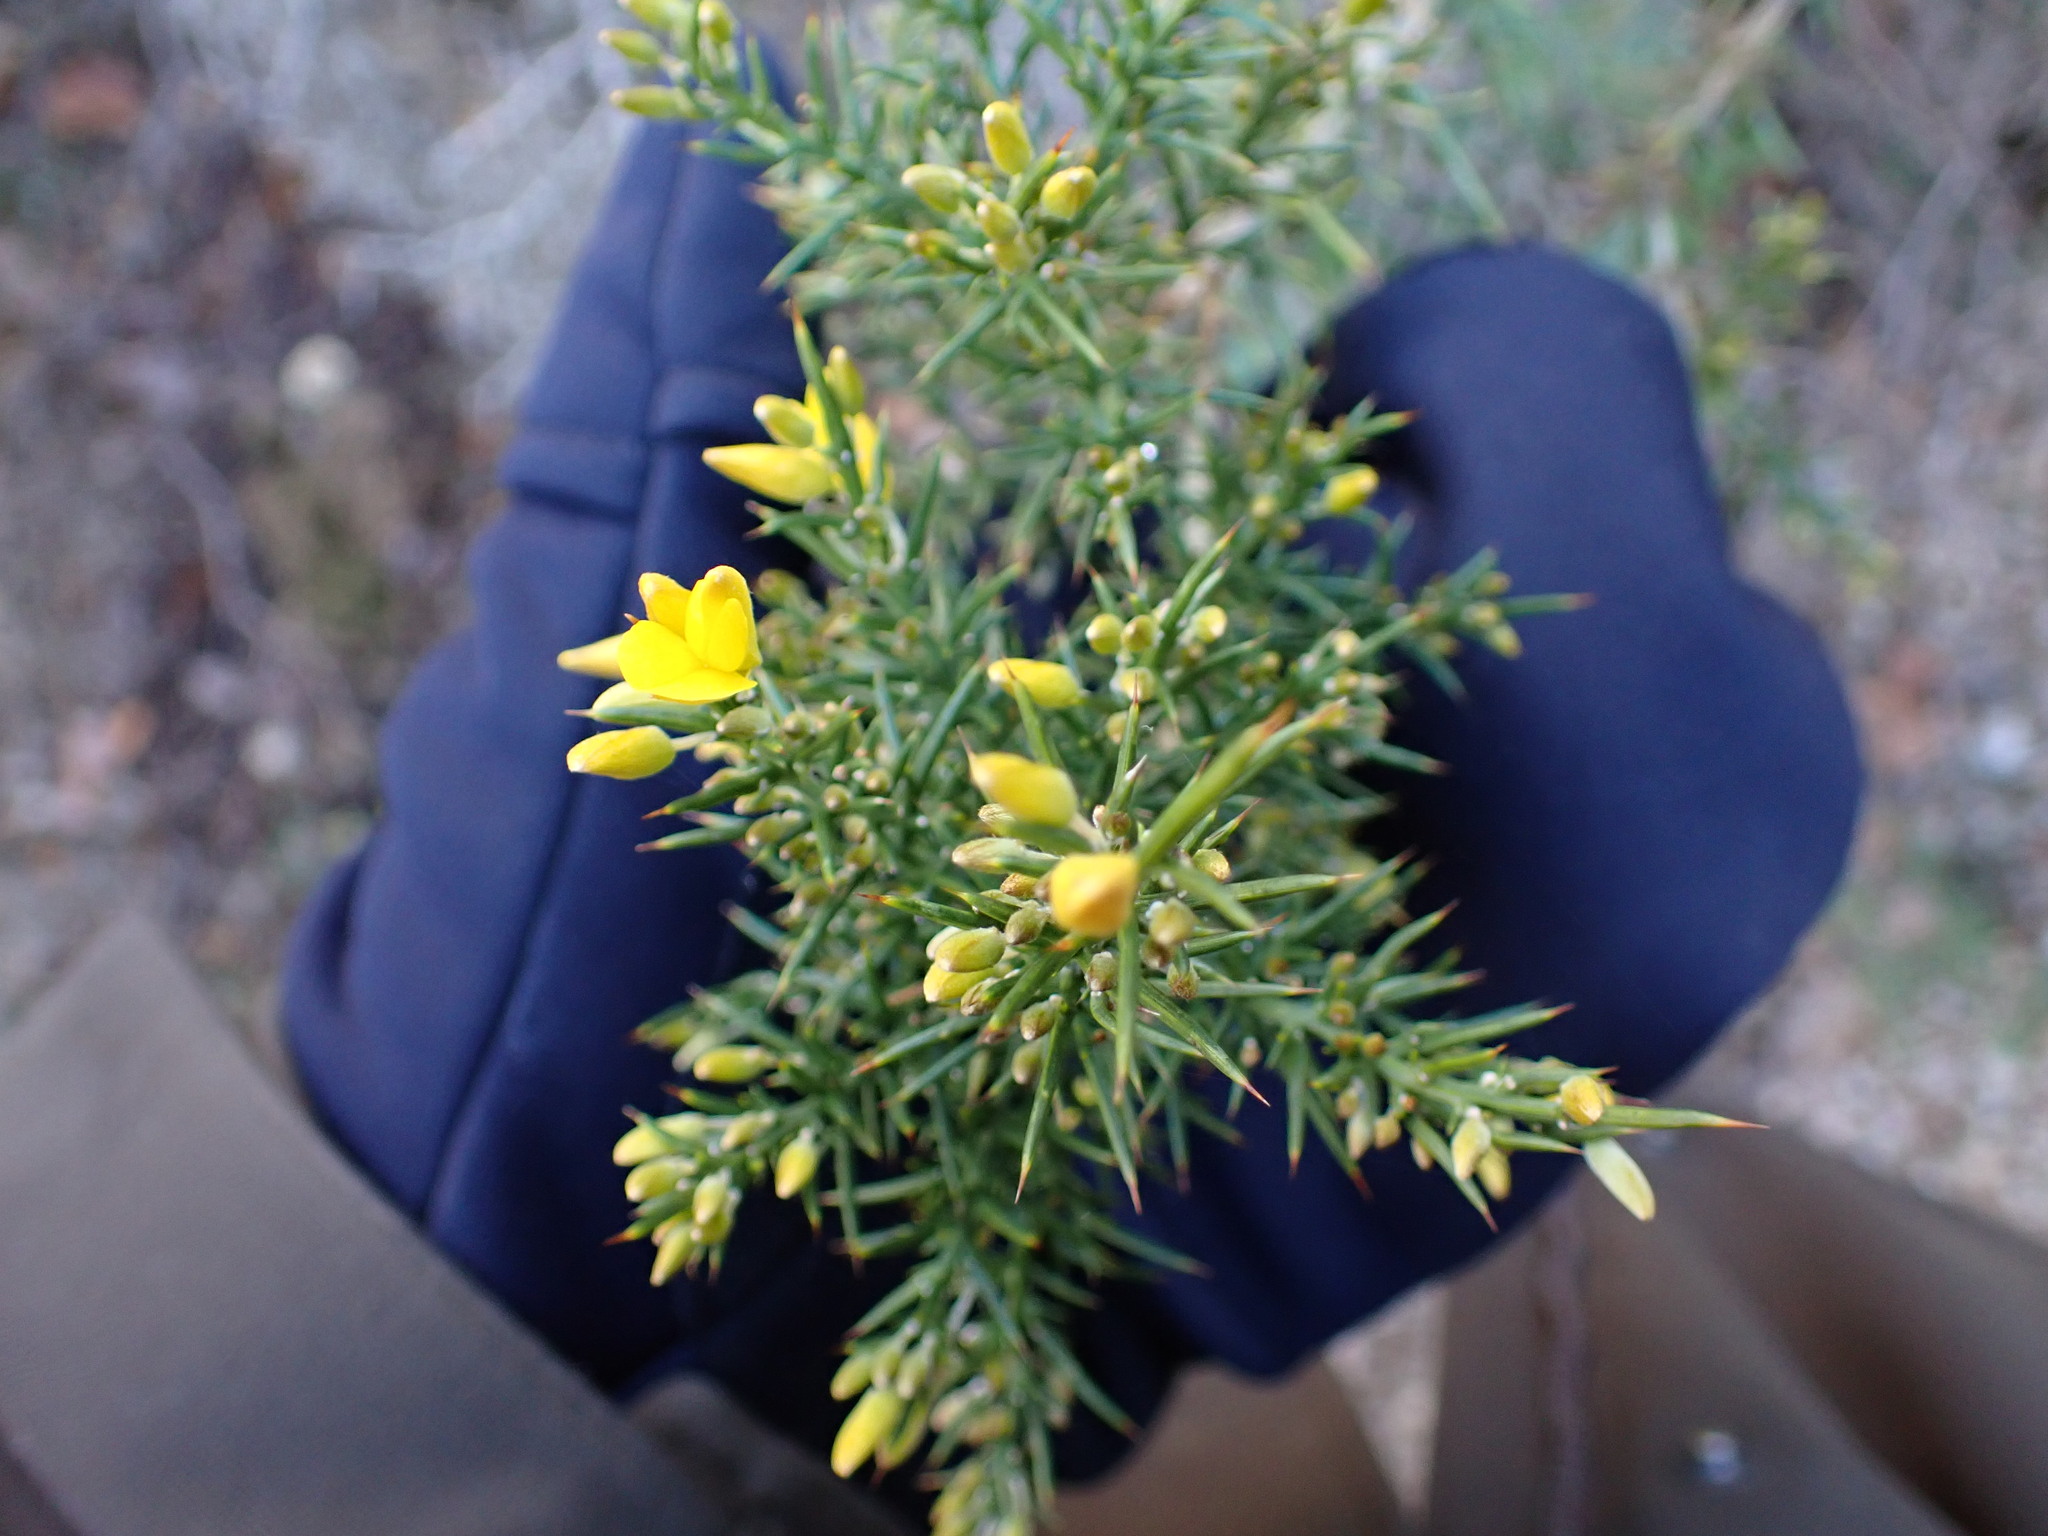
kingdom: Plantae
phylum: Tracheophyta
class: Magnoliopsida
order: Fabales
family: Fabaceae
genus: Ulex
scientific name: Ulex parviflorus
